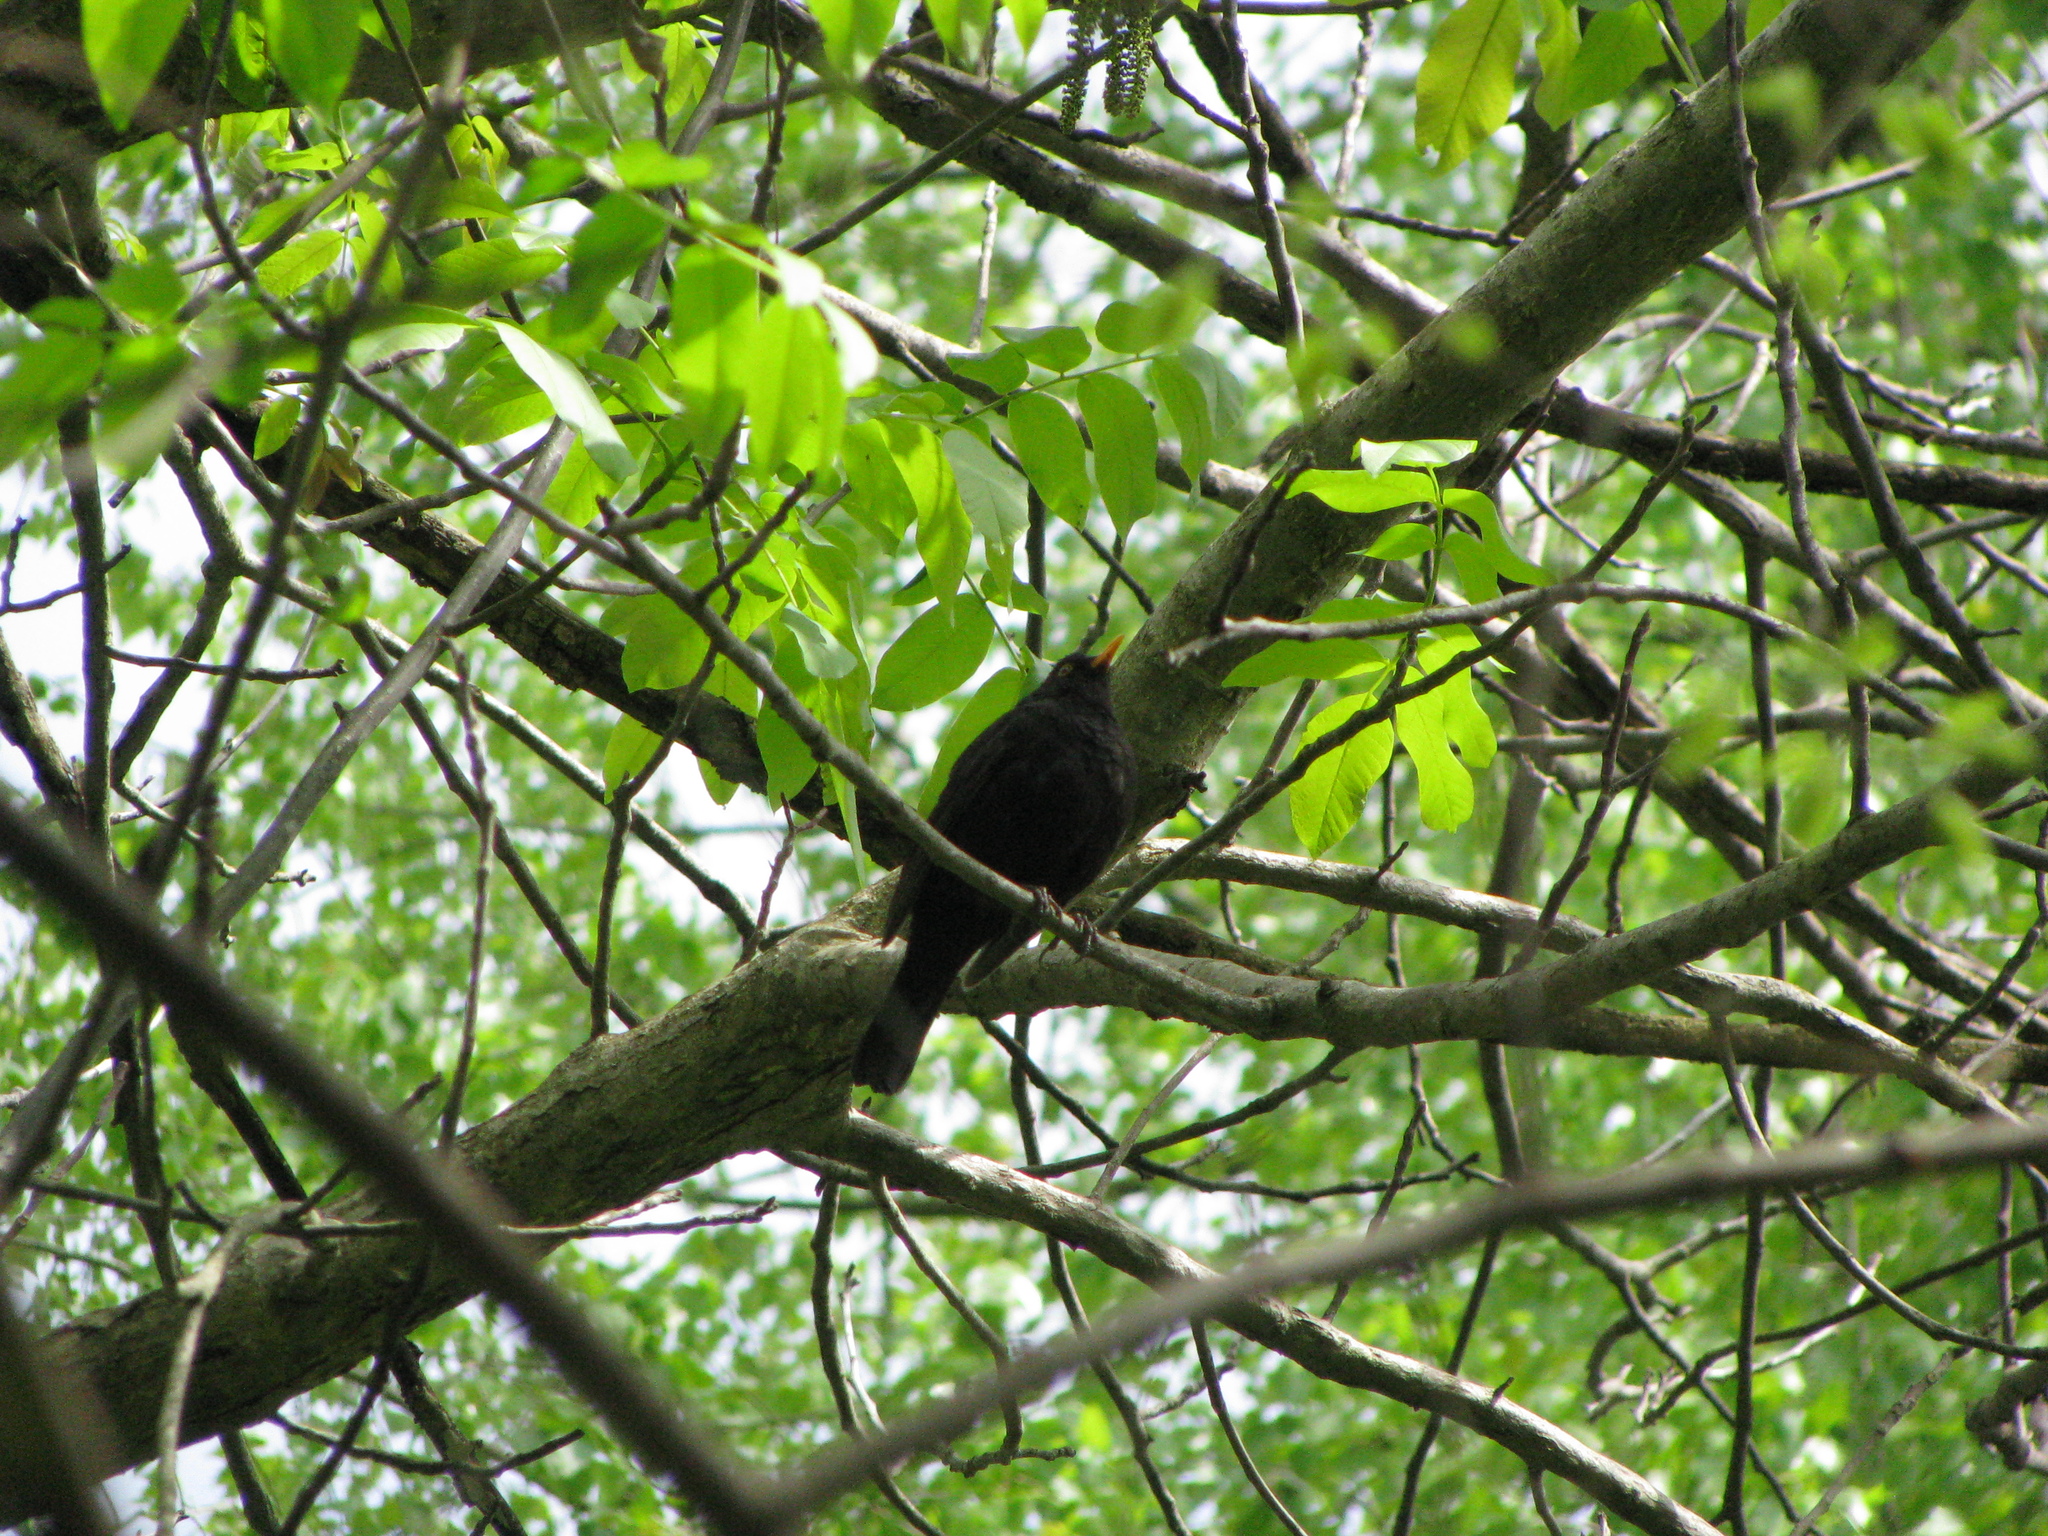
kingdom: Animalia
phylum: Chordata
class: Aves
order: Passeriformes
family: Turdidae
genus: Turdus
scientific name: Turdus merula
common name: Common blackbird
